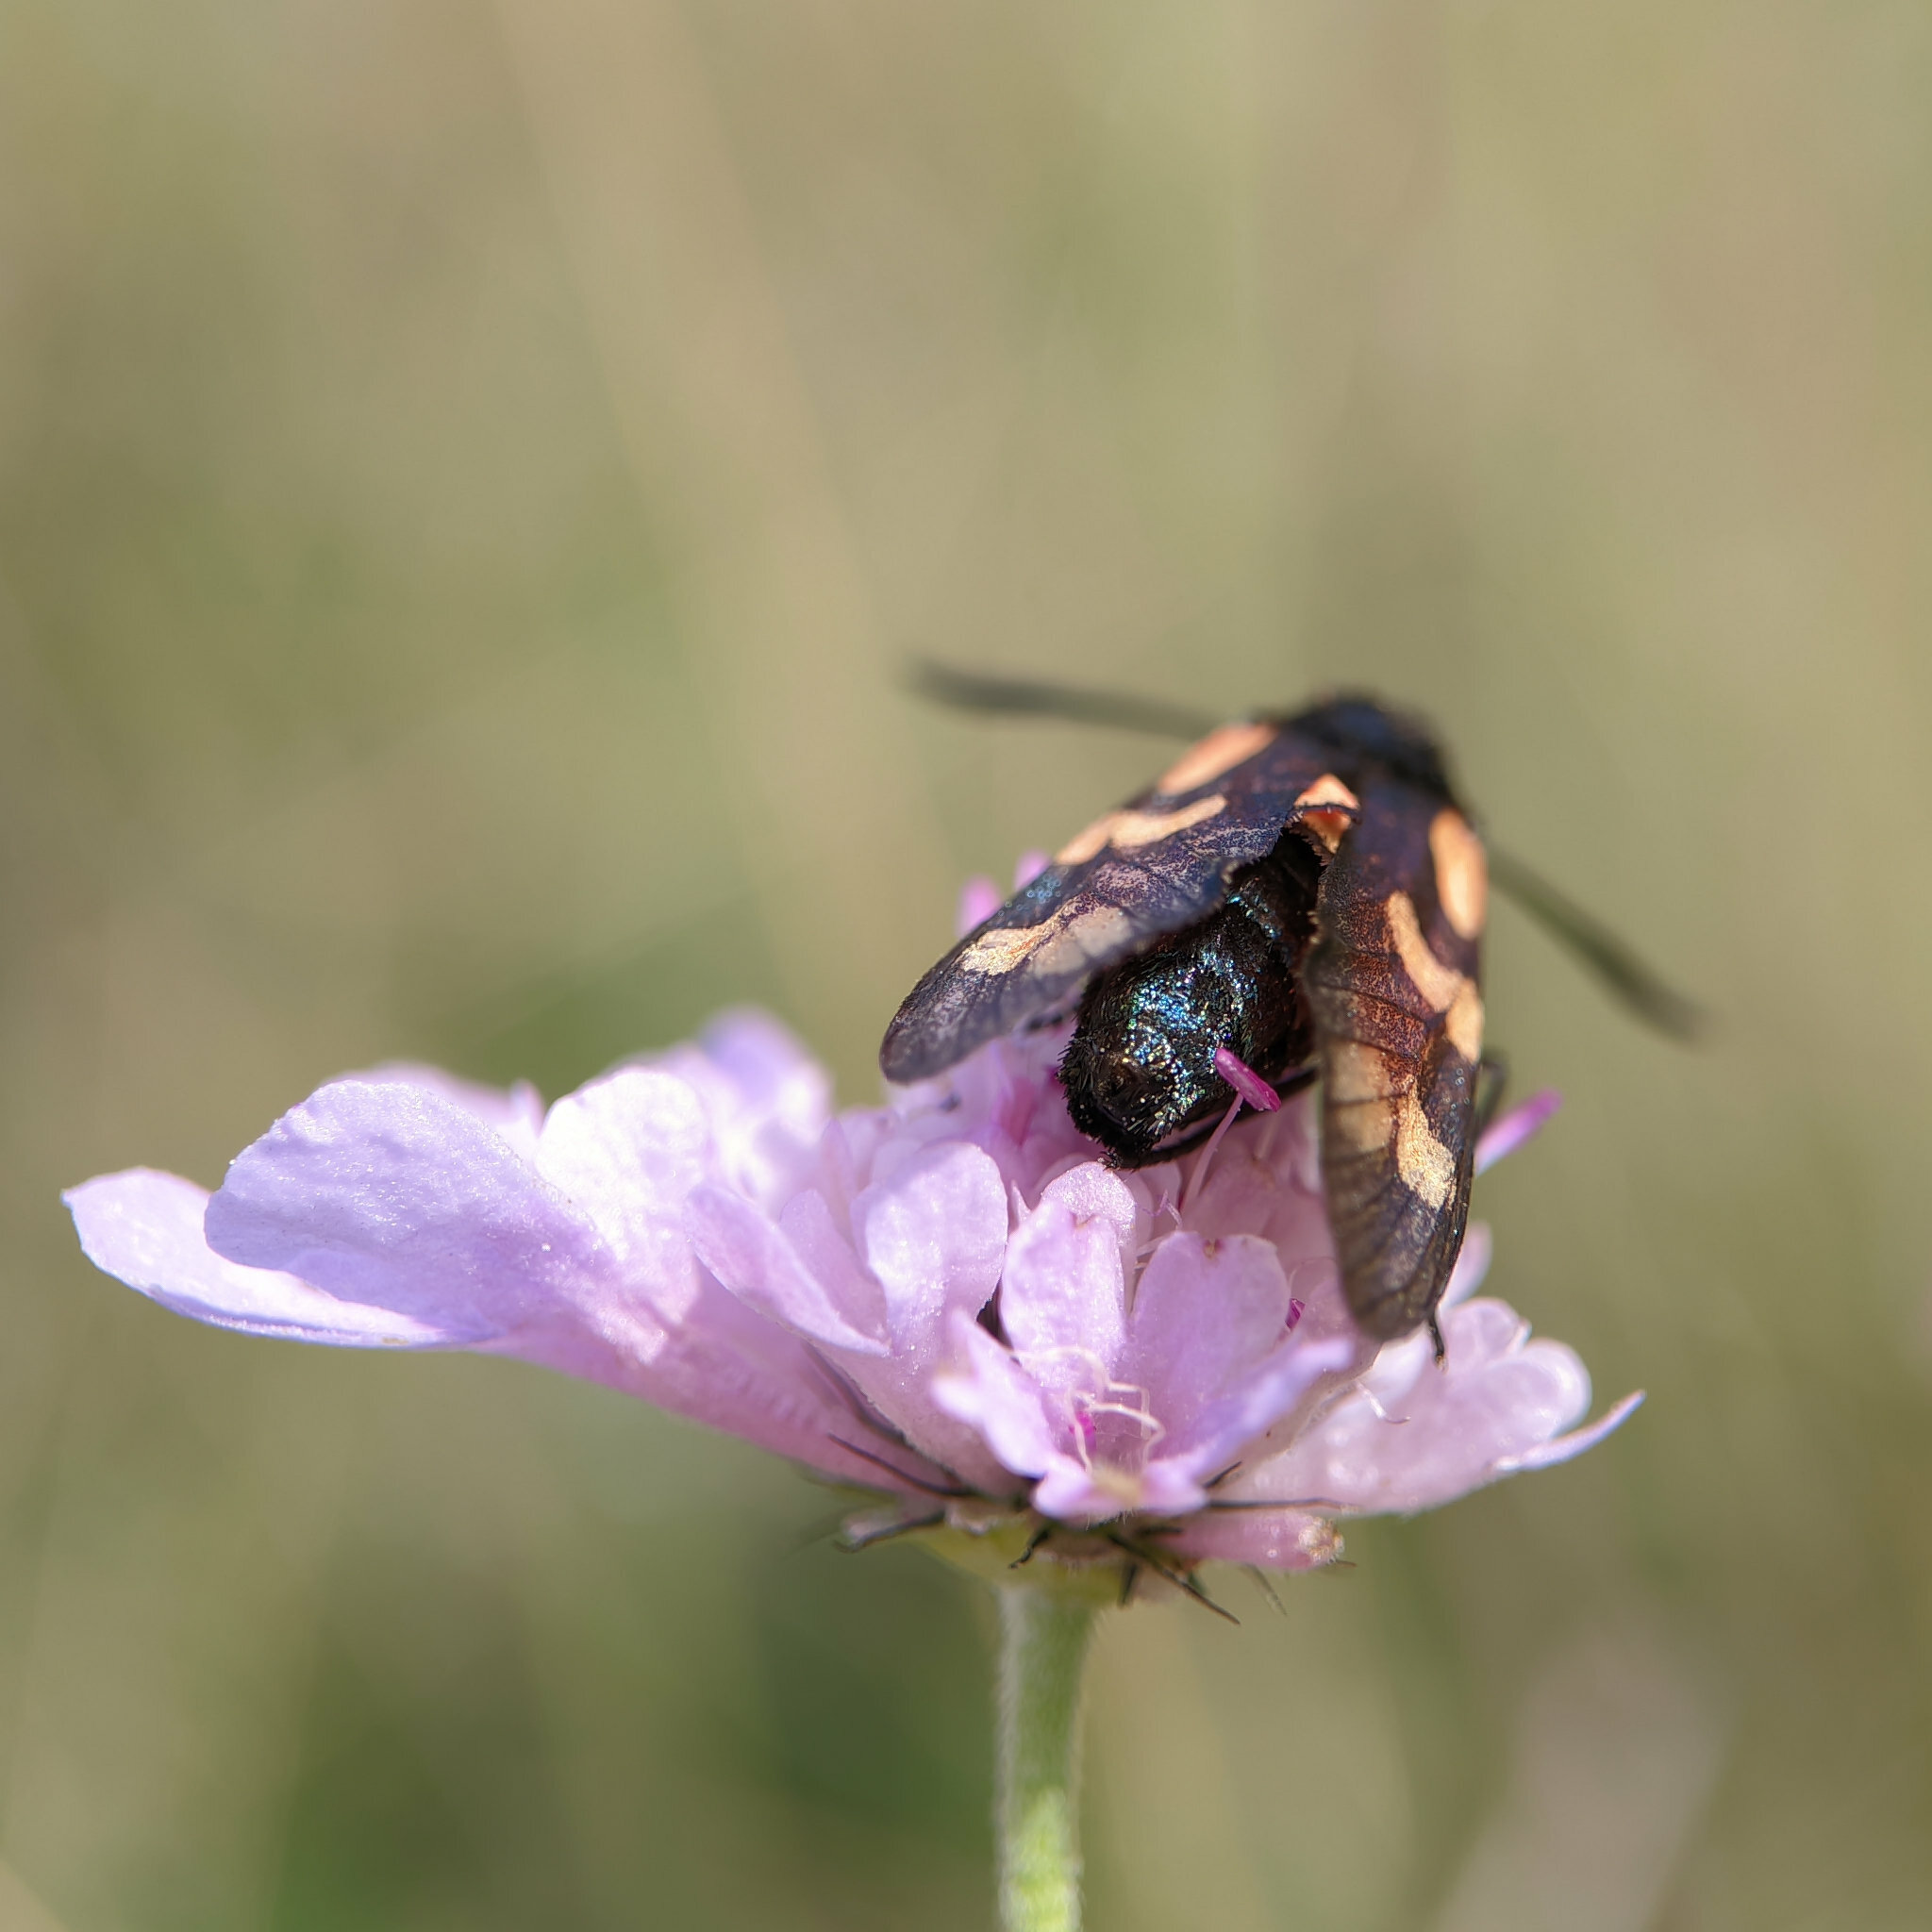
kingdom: Animalia
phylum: Arthropoda
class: Insecta
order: Lepidoptera
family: Zygaenidae
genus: Zygaena
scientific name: Zygaena filipendulae
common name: Six-spot burnet
